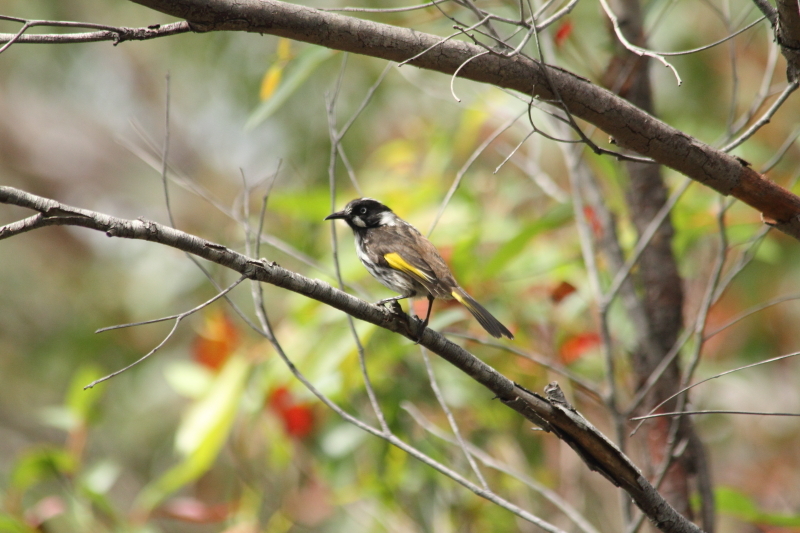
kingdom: Animalia
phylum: Chordata
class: Aves
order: Passeriformes
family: Meliphagidae
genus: Phylidonyris
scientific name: Phylidonyris novaehollandiae
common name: New holland honeyeater
